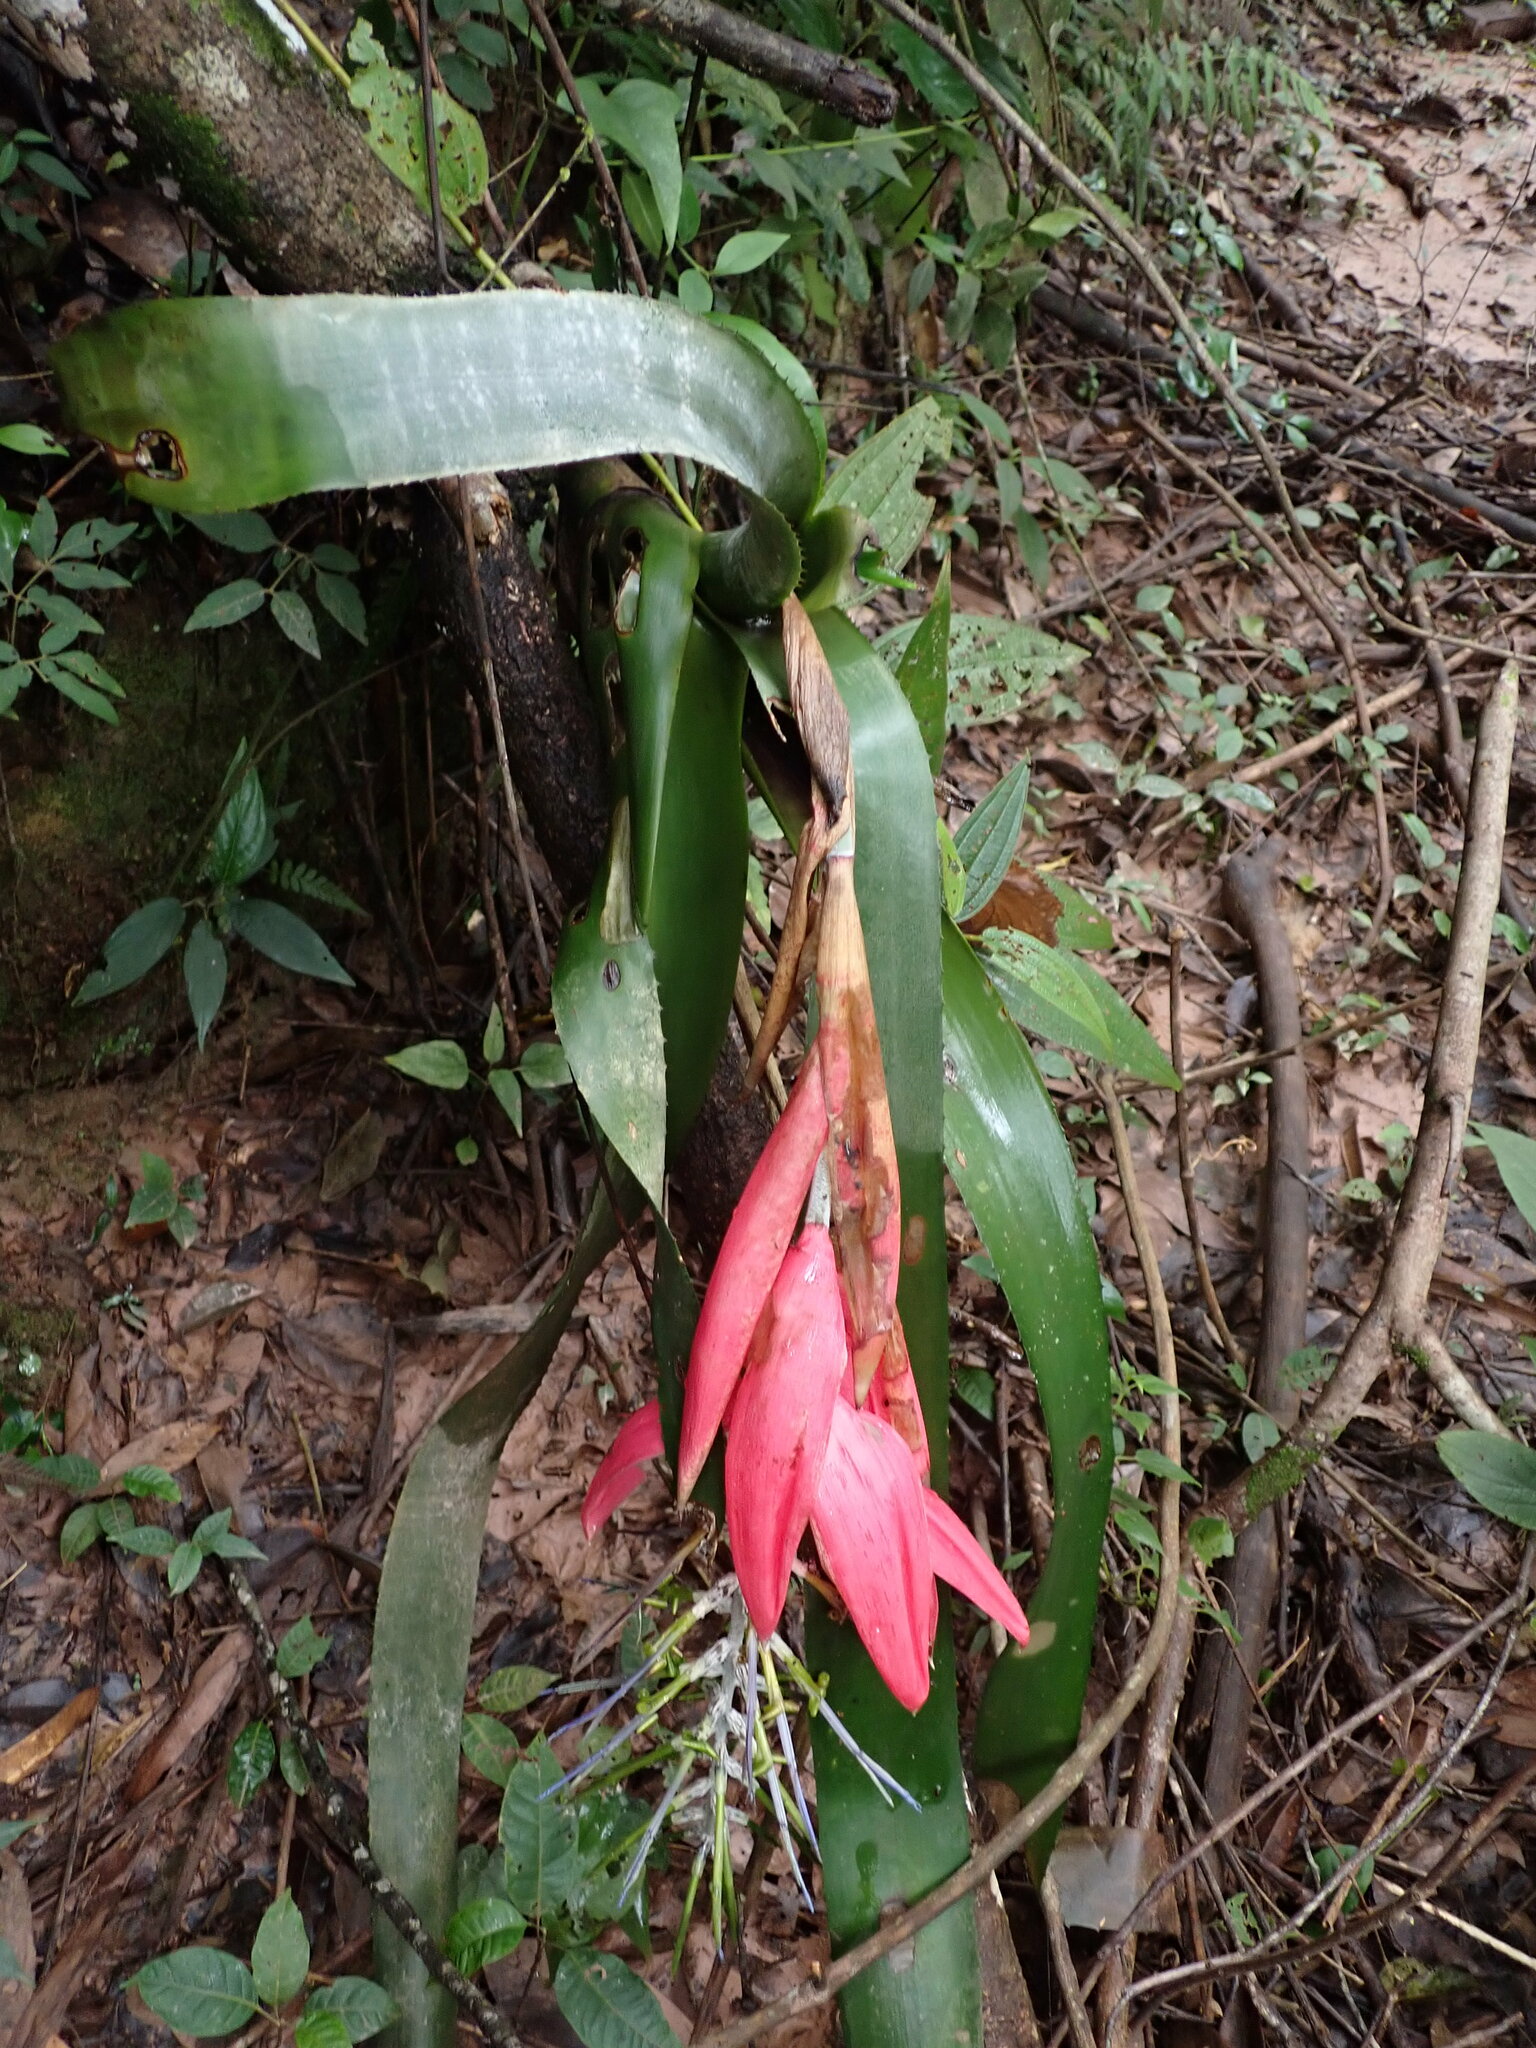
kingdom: Plantae
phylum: Tracheophyta
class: Liliopsida
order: Poales
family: Bromeliaceae
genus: Billbergia
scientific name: Billbergia porteana
